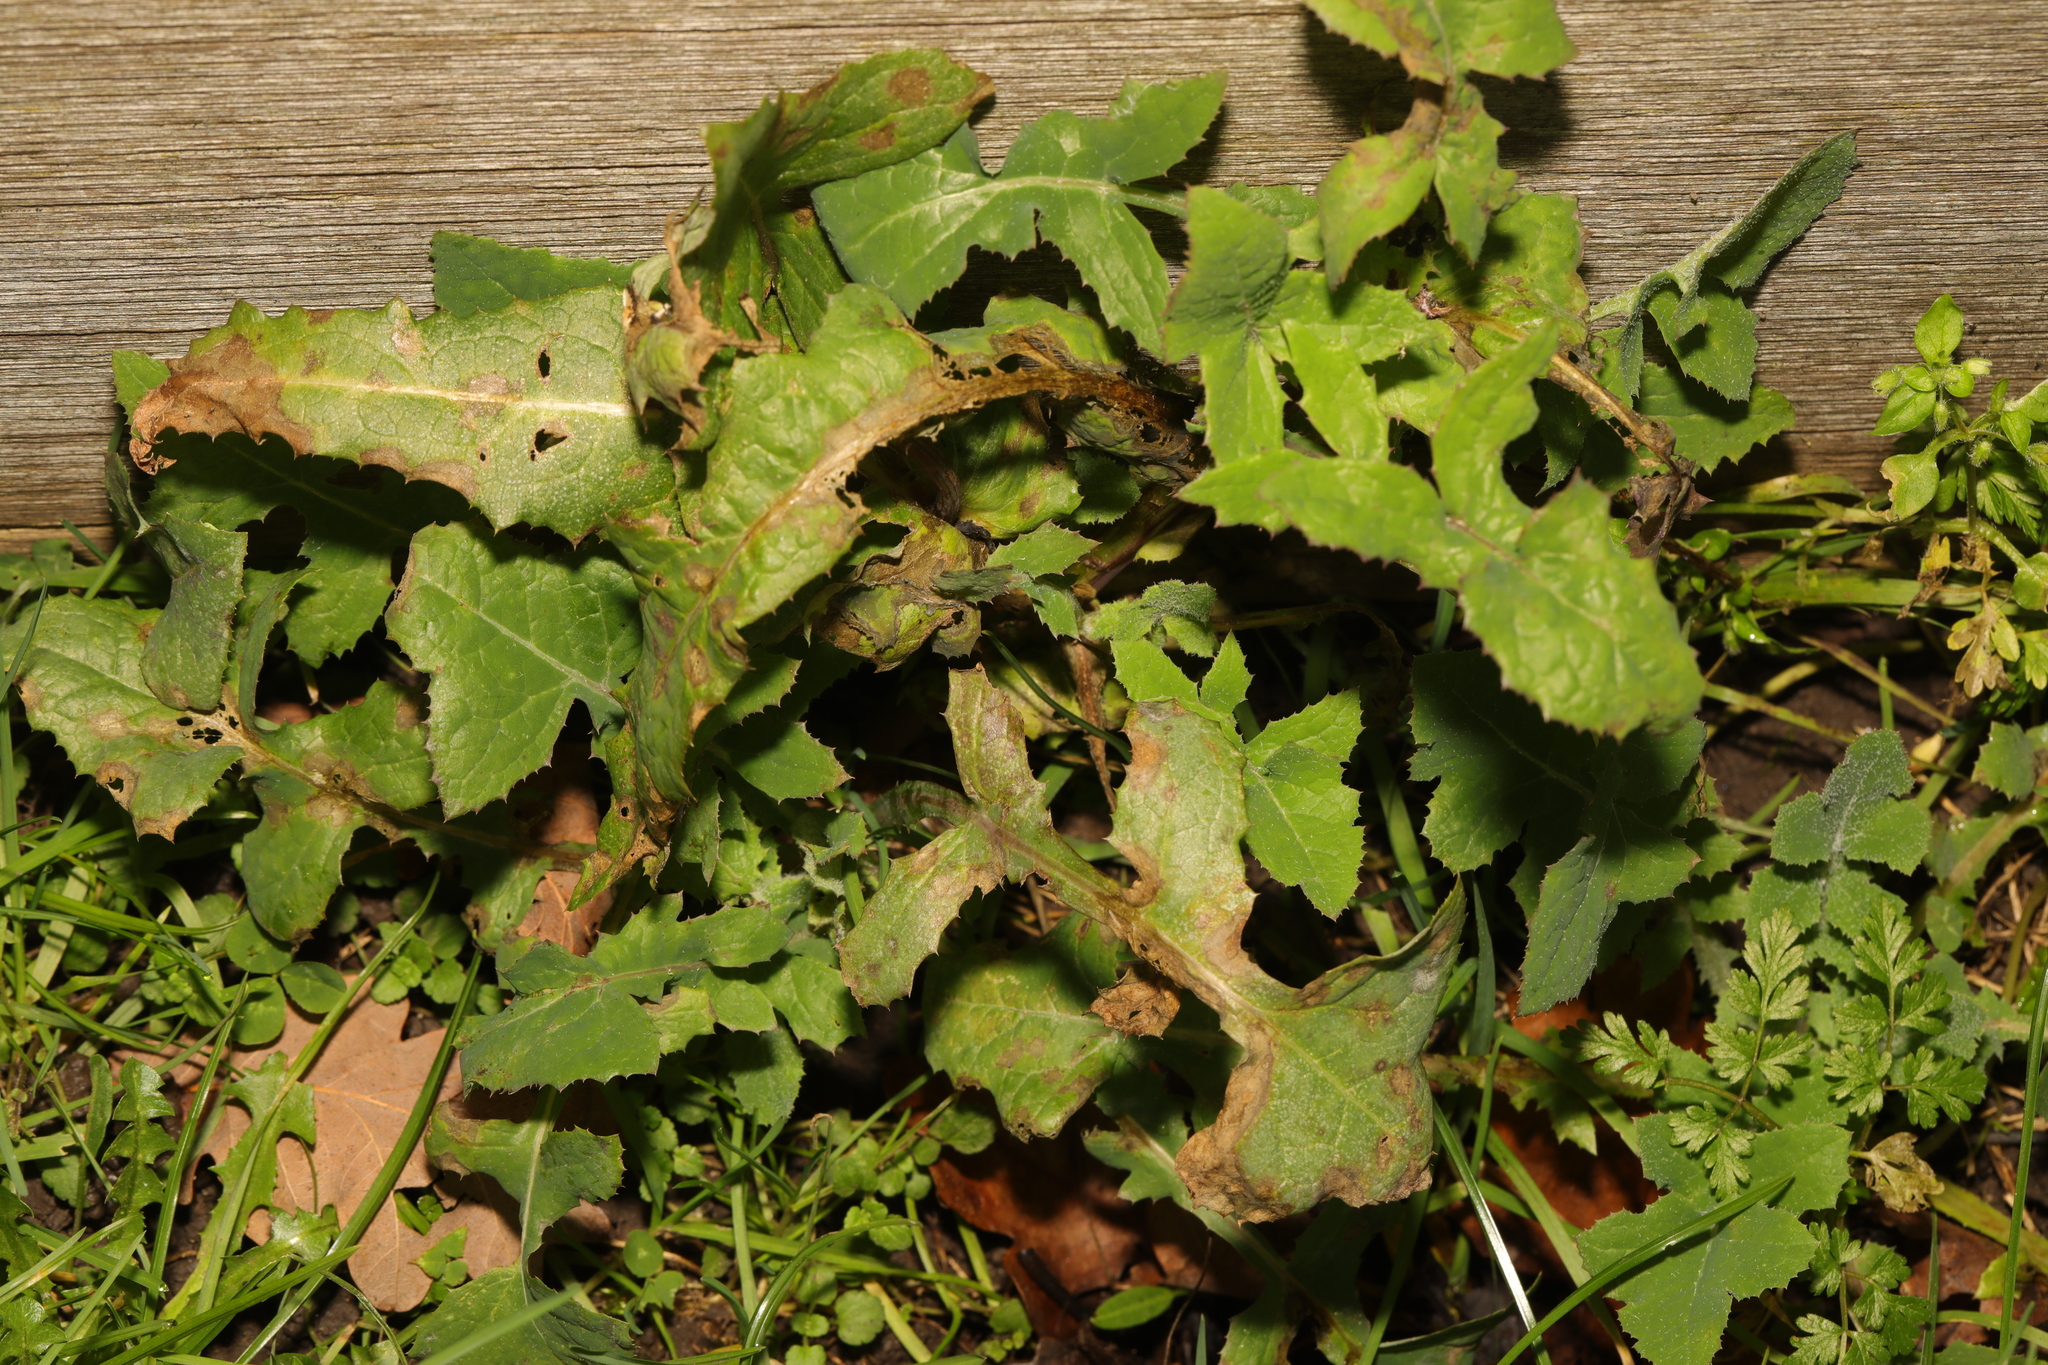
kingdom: Plantae
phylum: Tracheophyta
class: Magnoliopsida
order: Asterales
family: Asteraceae
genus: Sonchus
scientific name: Sonchus oleraceus
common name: Common sowthistle
